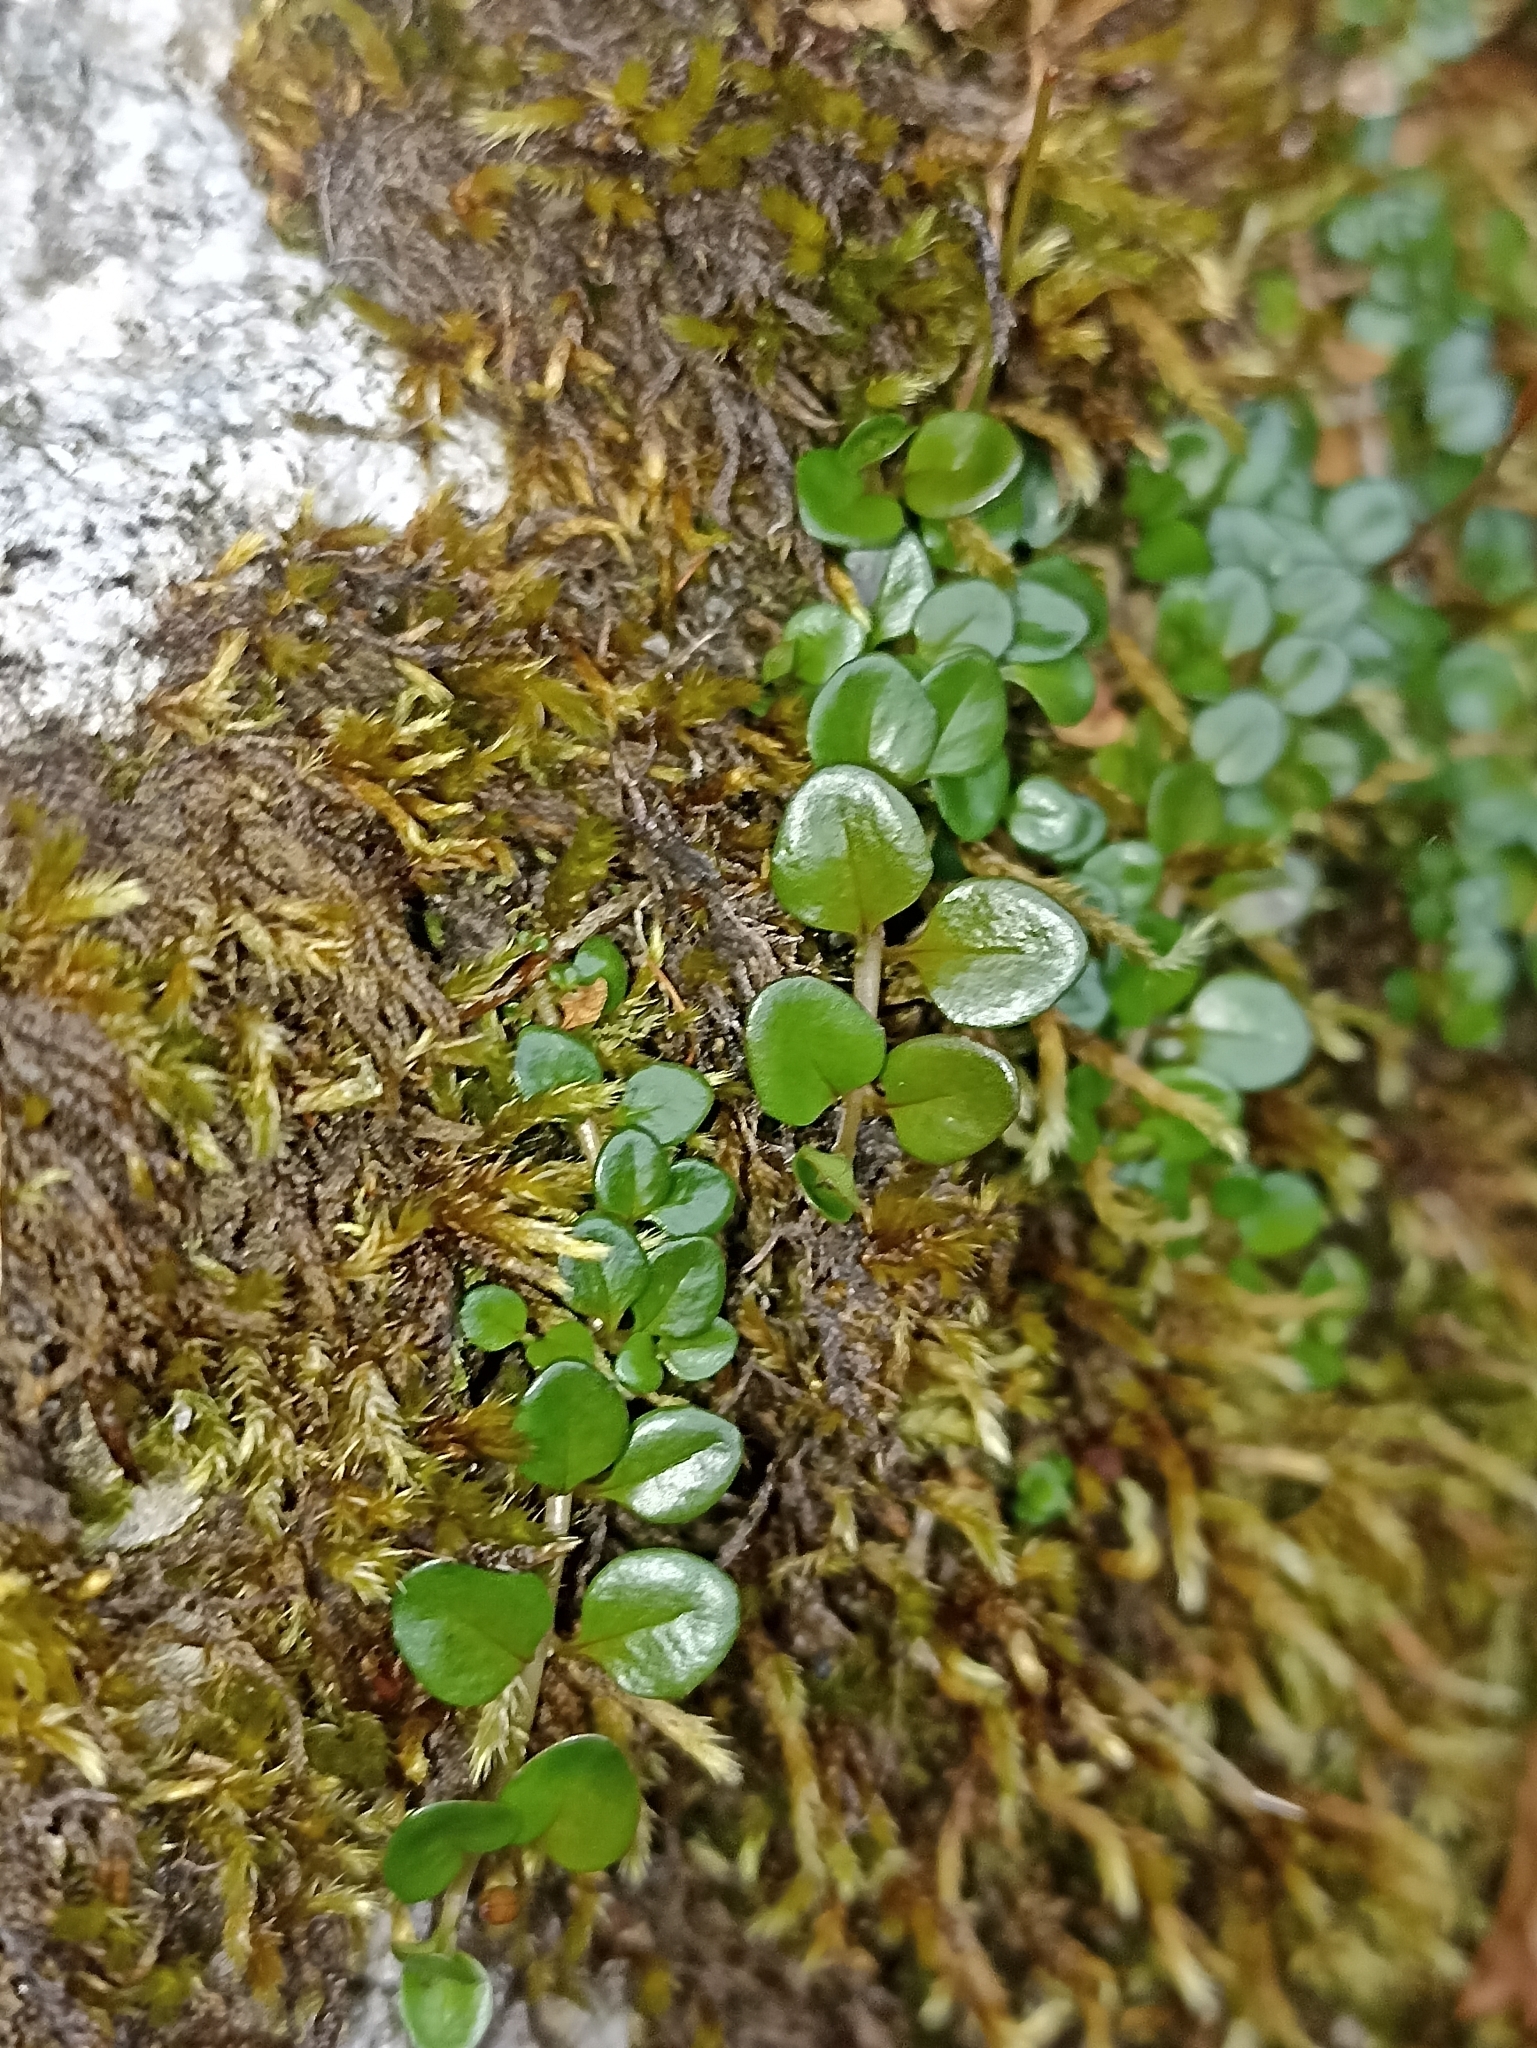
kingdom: Plantae
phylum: Tracheophyta
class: Magnoliopsida
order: Myrtales
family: Onagraceae
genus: Epilobium
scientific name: Epilobium brunnescens
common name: New zealand willowherb
